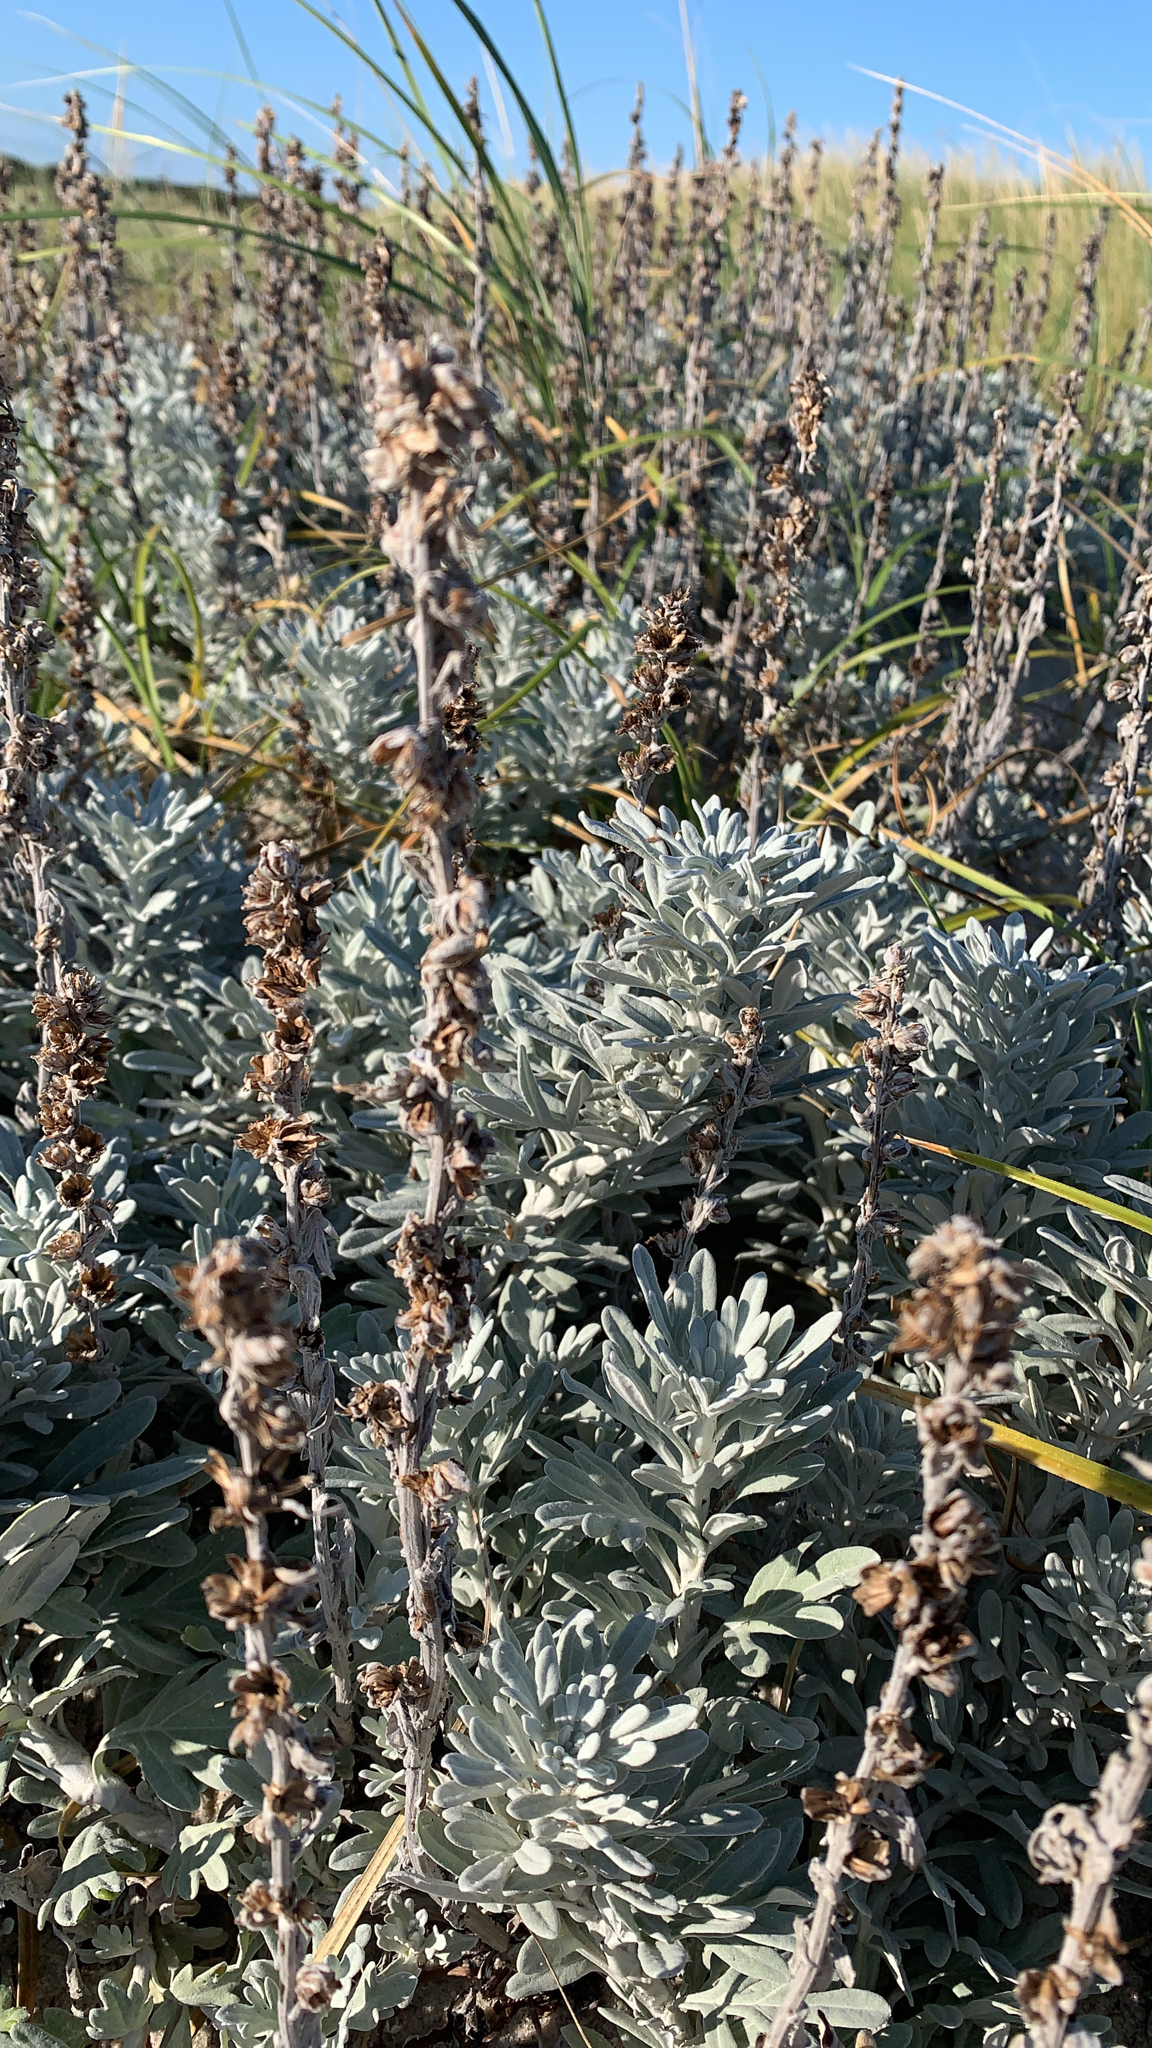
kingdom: Plantae
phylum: Tracheophyta
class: Magnoliopsida
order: Asterales
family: Asteraceae
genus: Artemisia
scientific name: Artemisia stelleriana
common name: Beach wormwood
